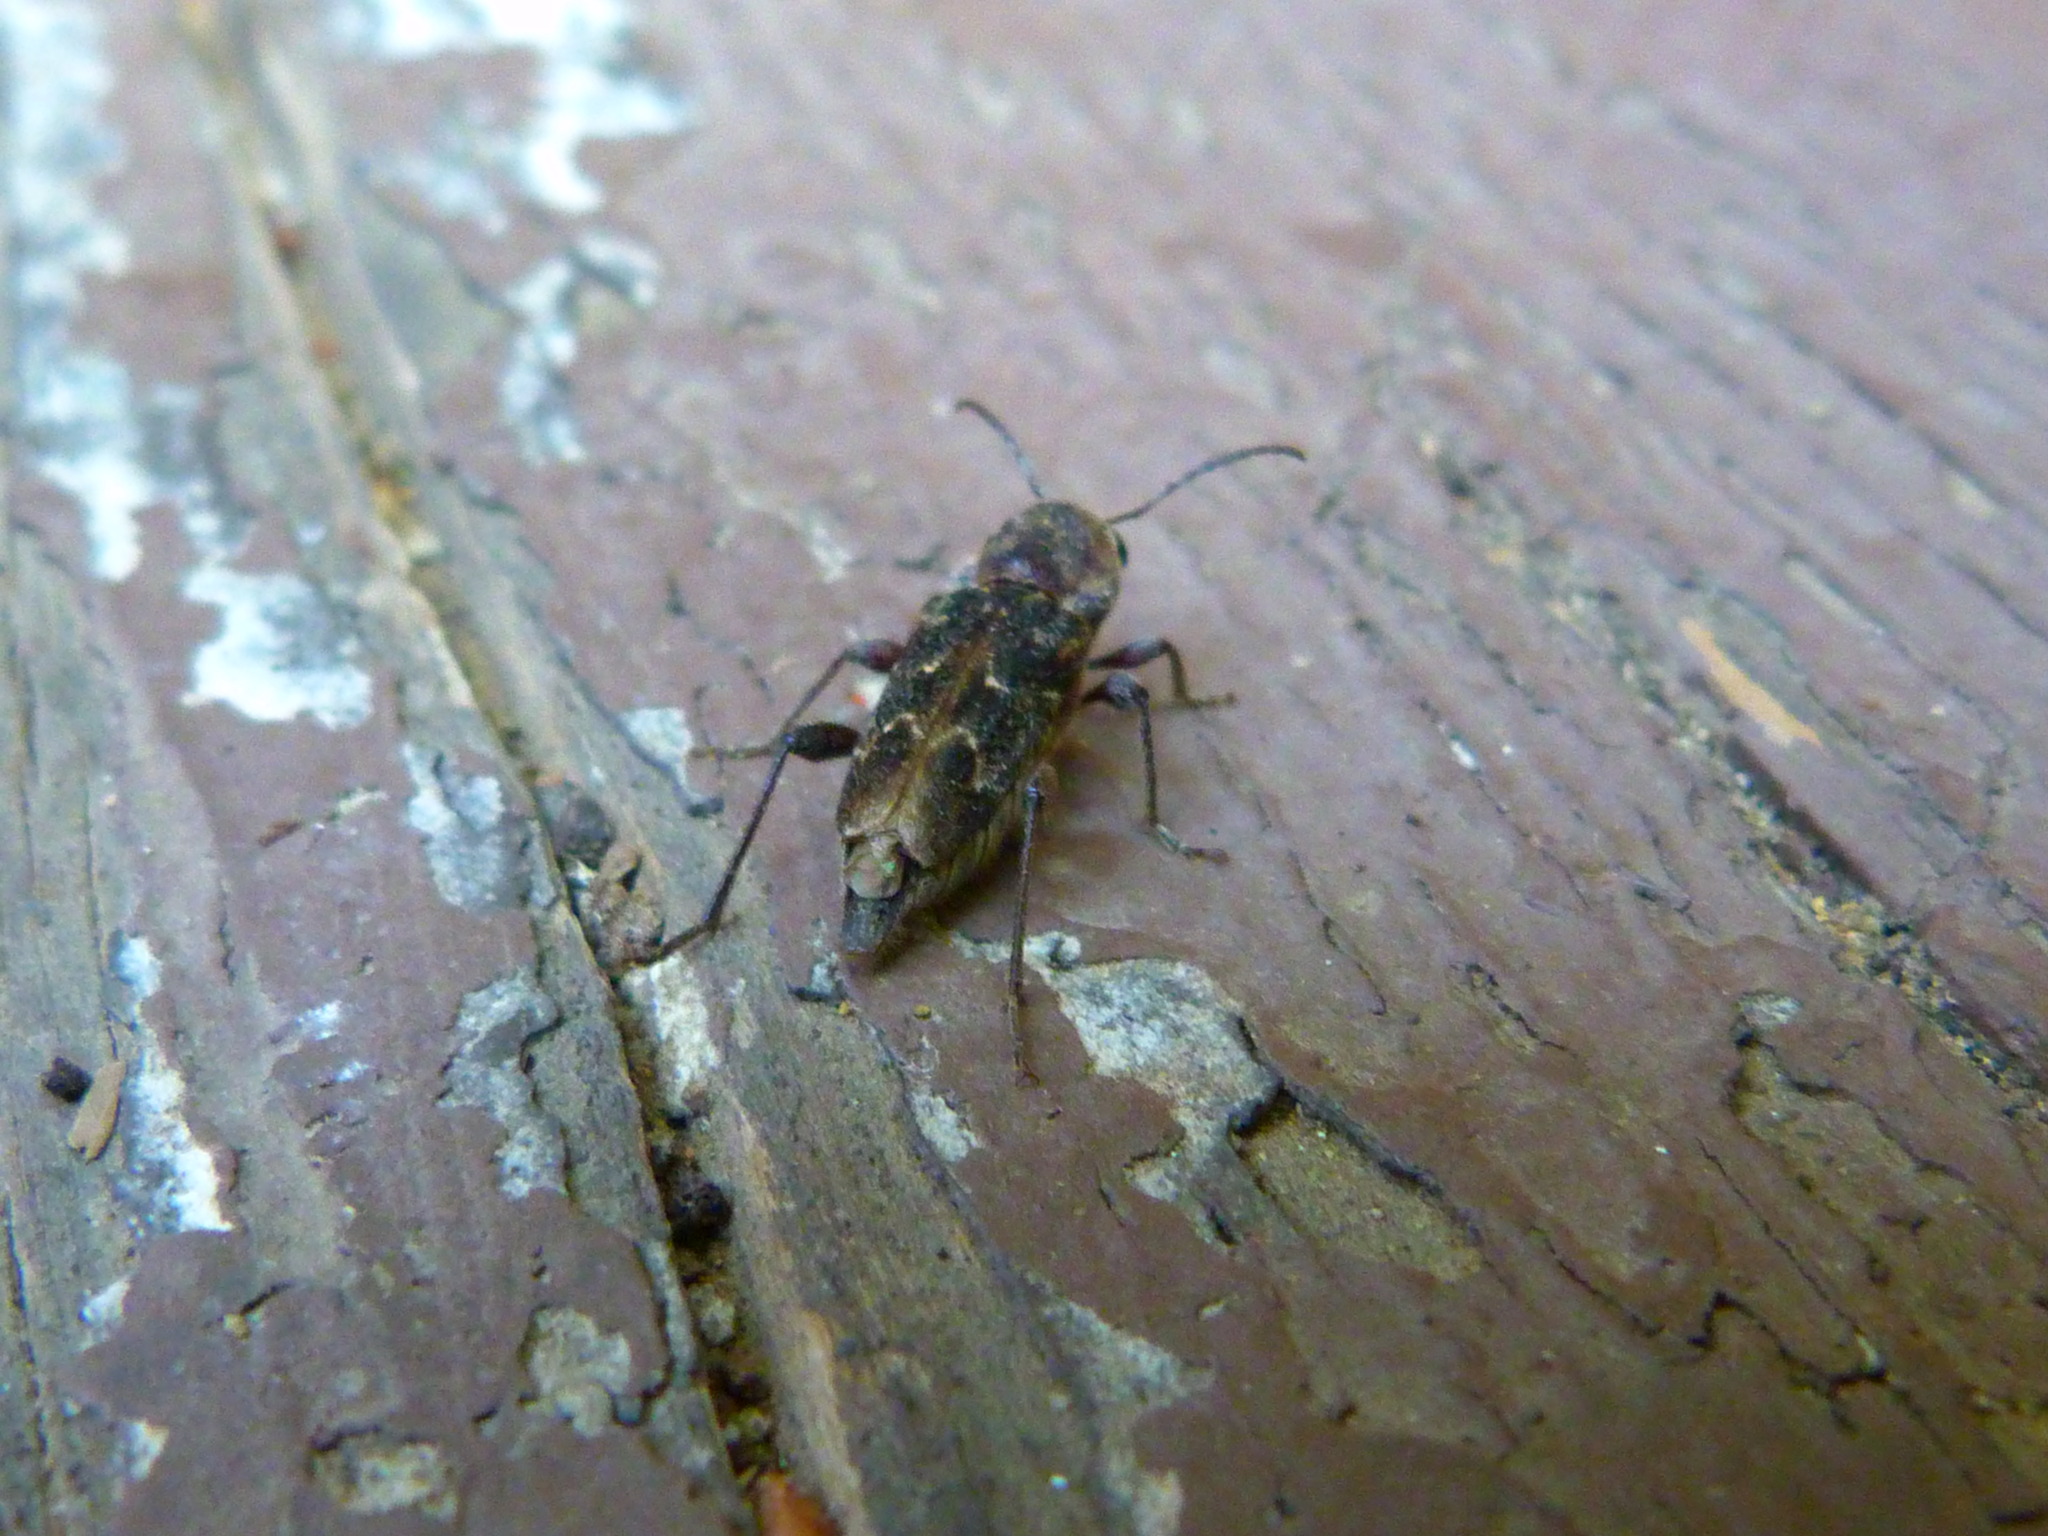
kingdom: Animalia
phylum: Arthropoda
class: Insecta
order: Coleoptera
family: Cerambycidae
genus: Xylotrechus
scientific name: Xylotrechus nauticus
